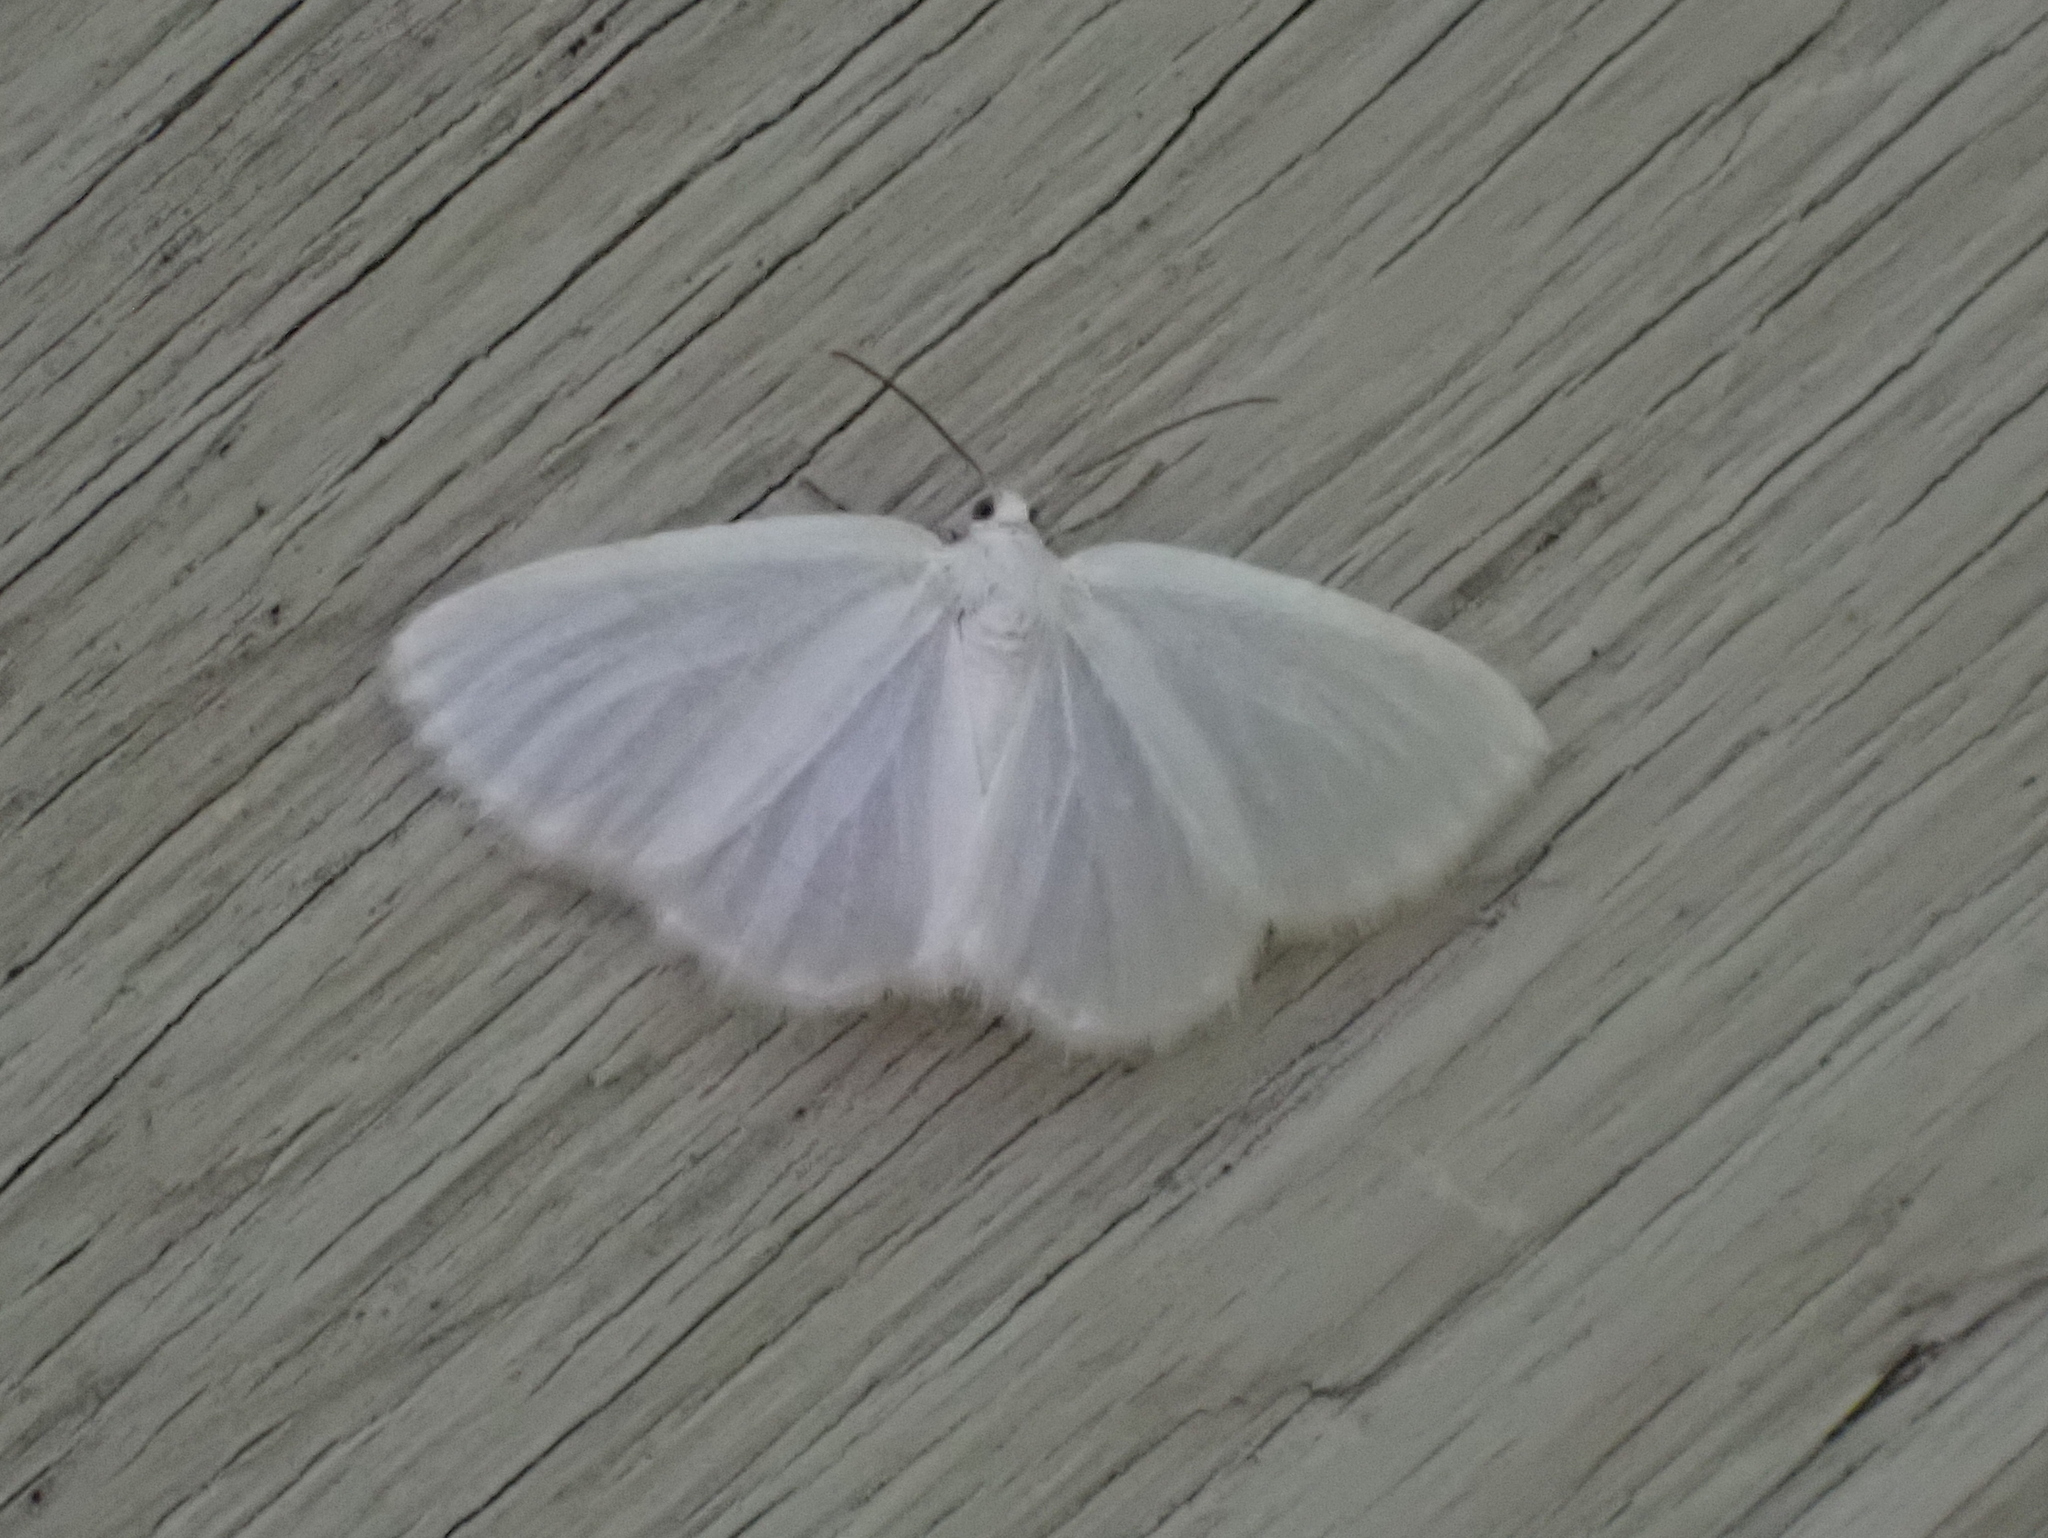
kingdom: Animalia
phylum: Arthropoda
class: Insecta
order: Lepidoptera
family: Geometridae
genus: Lomographa
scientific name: Lomographa vestaliata
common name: White spring moth
